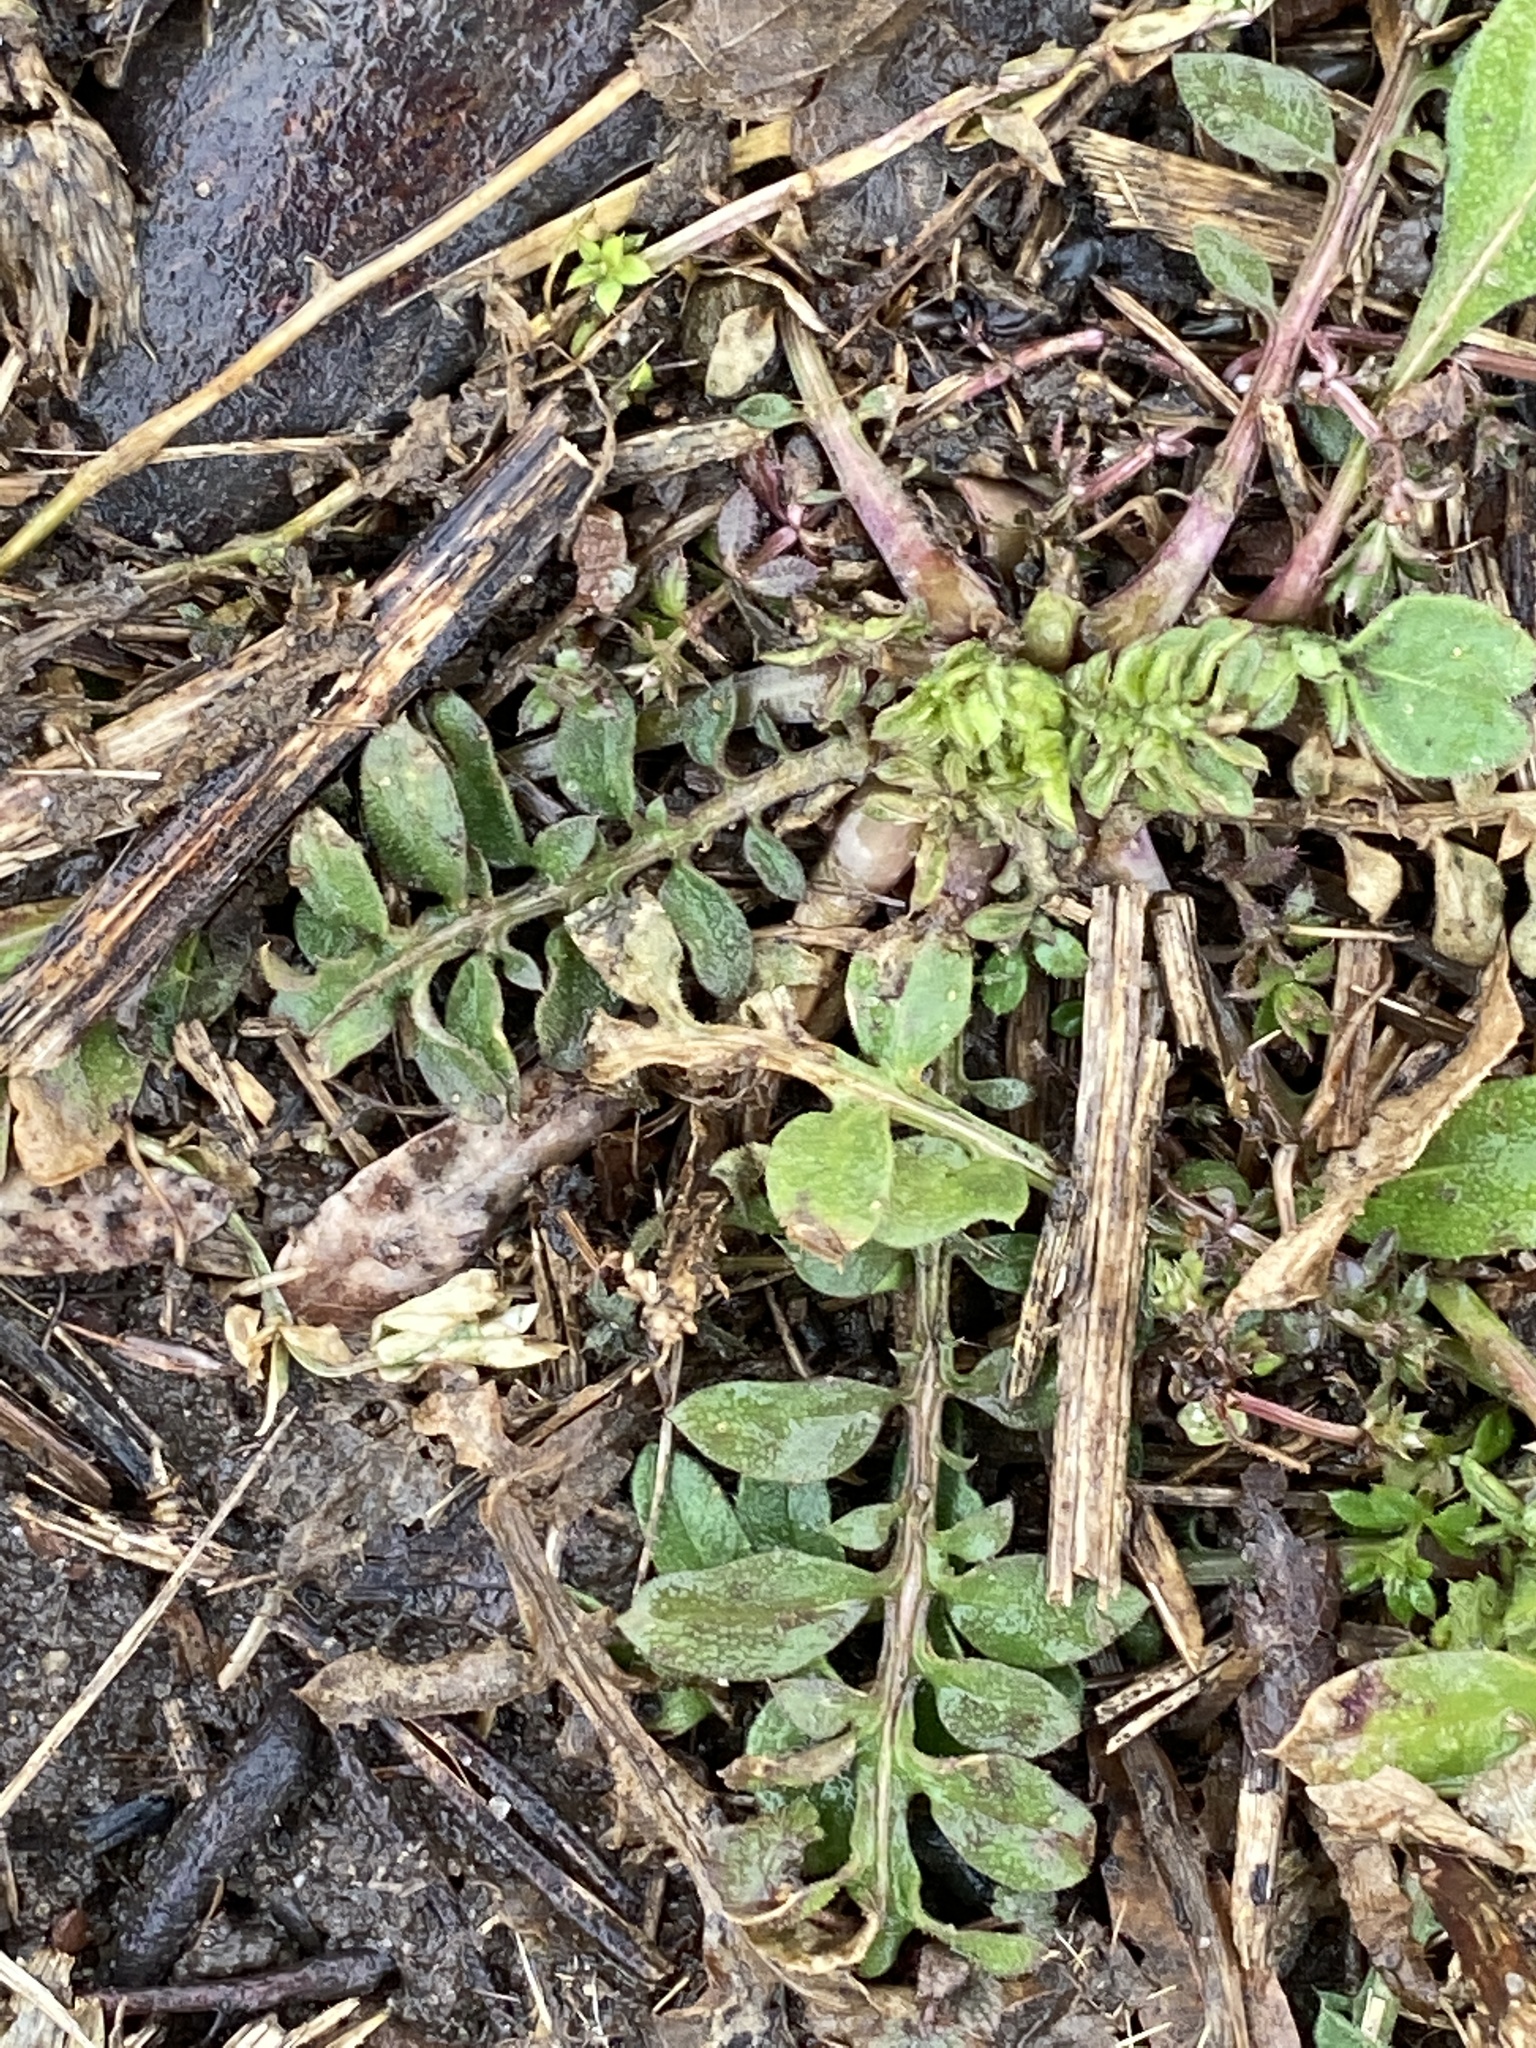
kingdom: Plantae
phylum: Tracheophyta
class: Magnoliopsida
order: Asterales
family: Asteraceae
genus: Centaurea
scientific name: Centaurea stoebe
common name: Spotted knapweed
